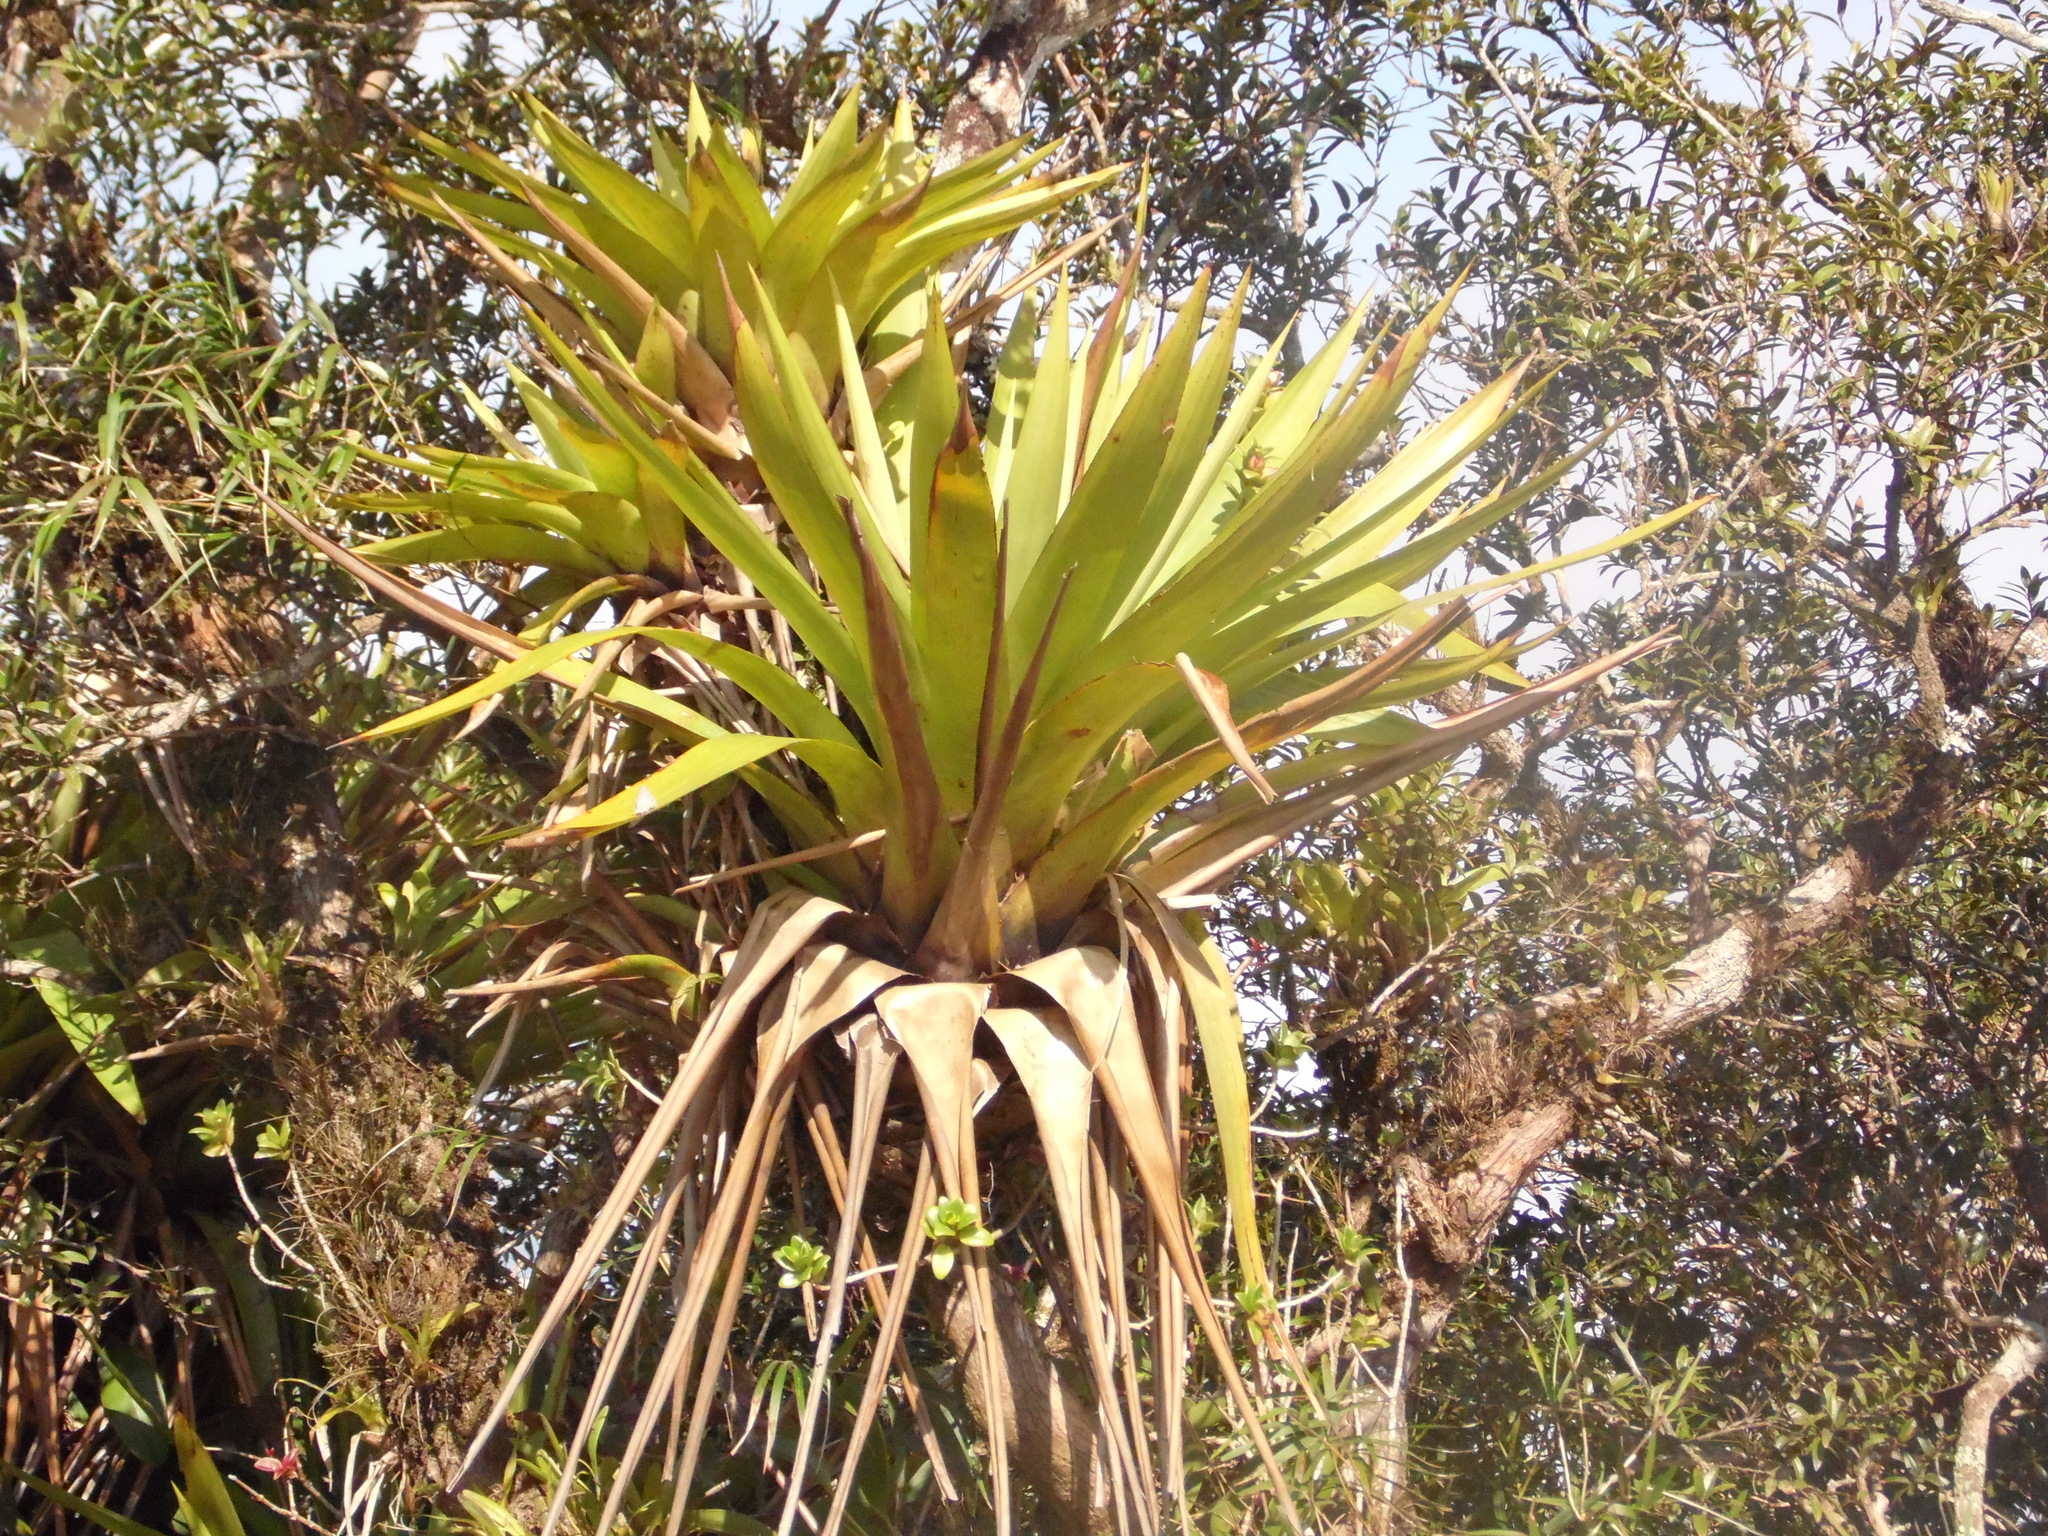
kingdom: Plantae
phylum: Tracheophyta
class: Liliopsida
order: Poales
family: Bromeliaceae
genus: Vriesea
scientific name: Vriesea altodaserrae
